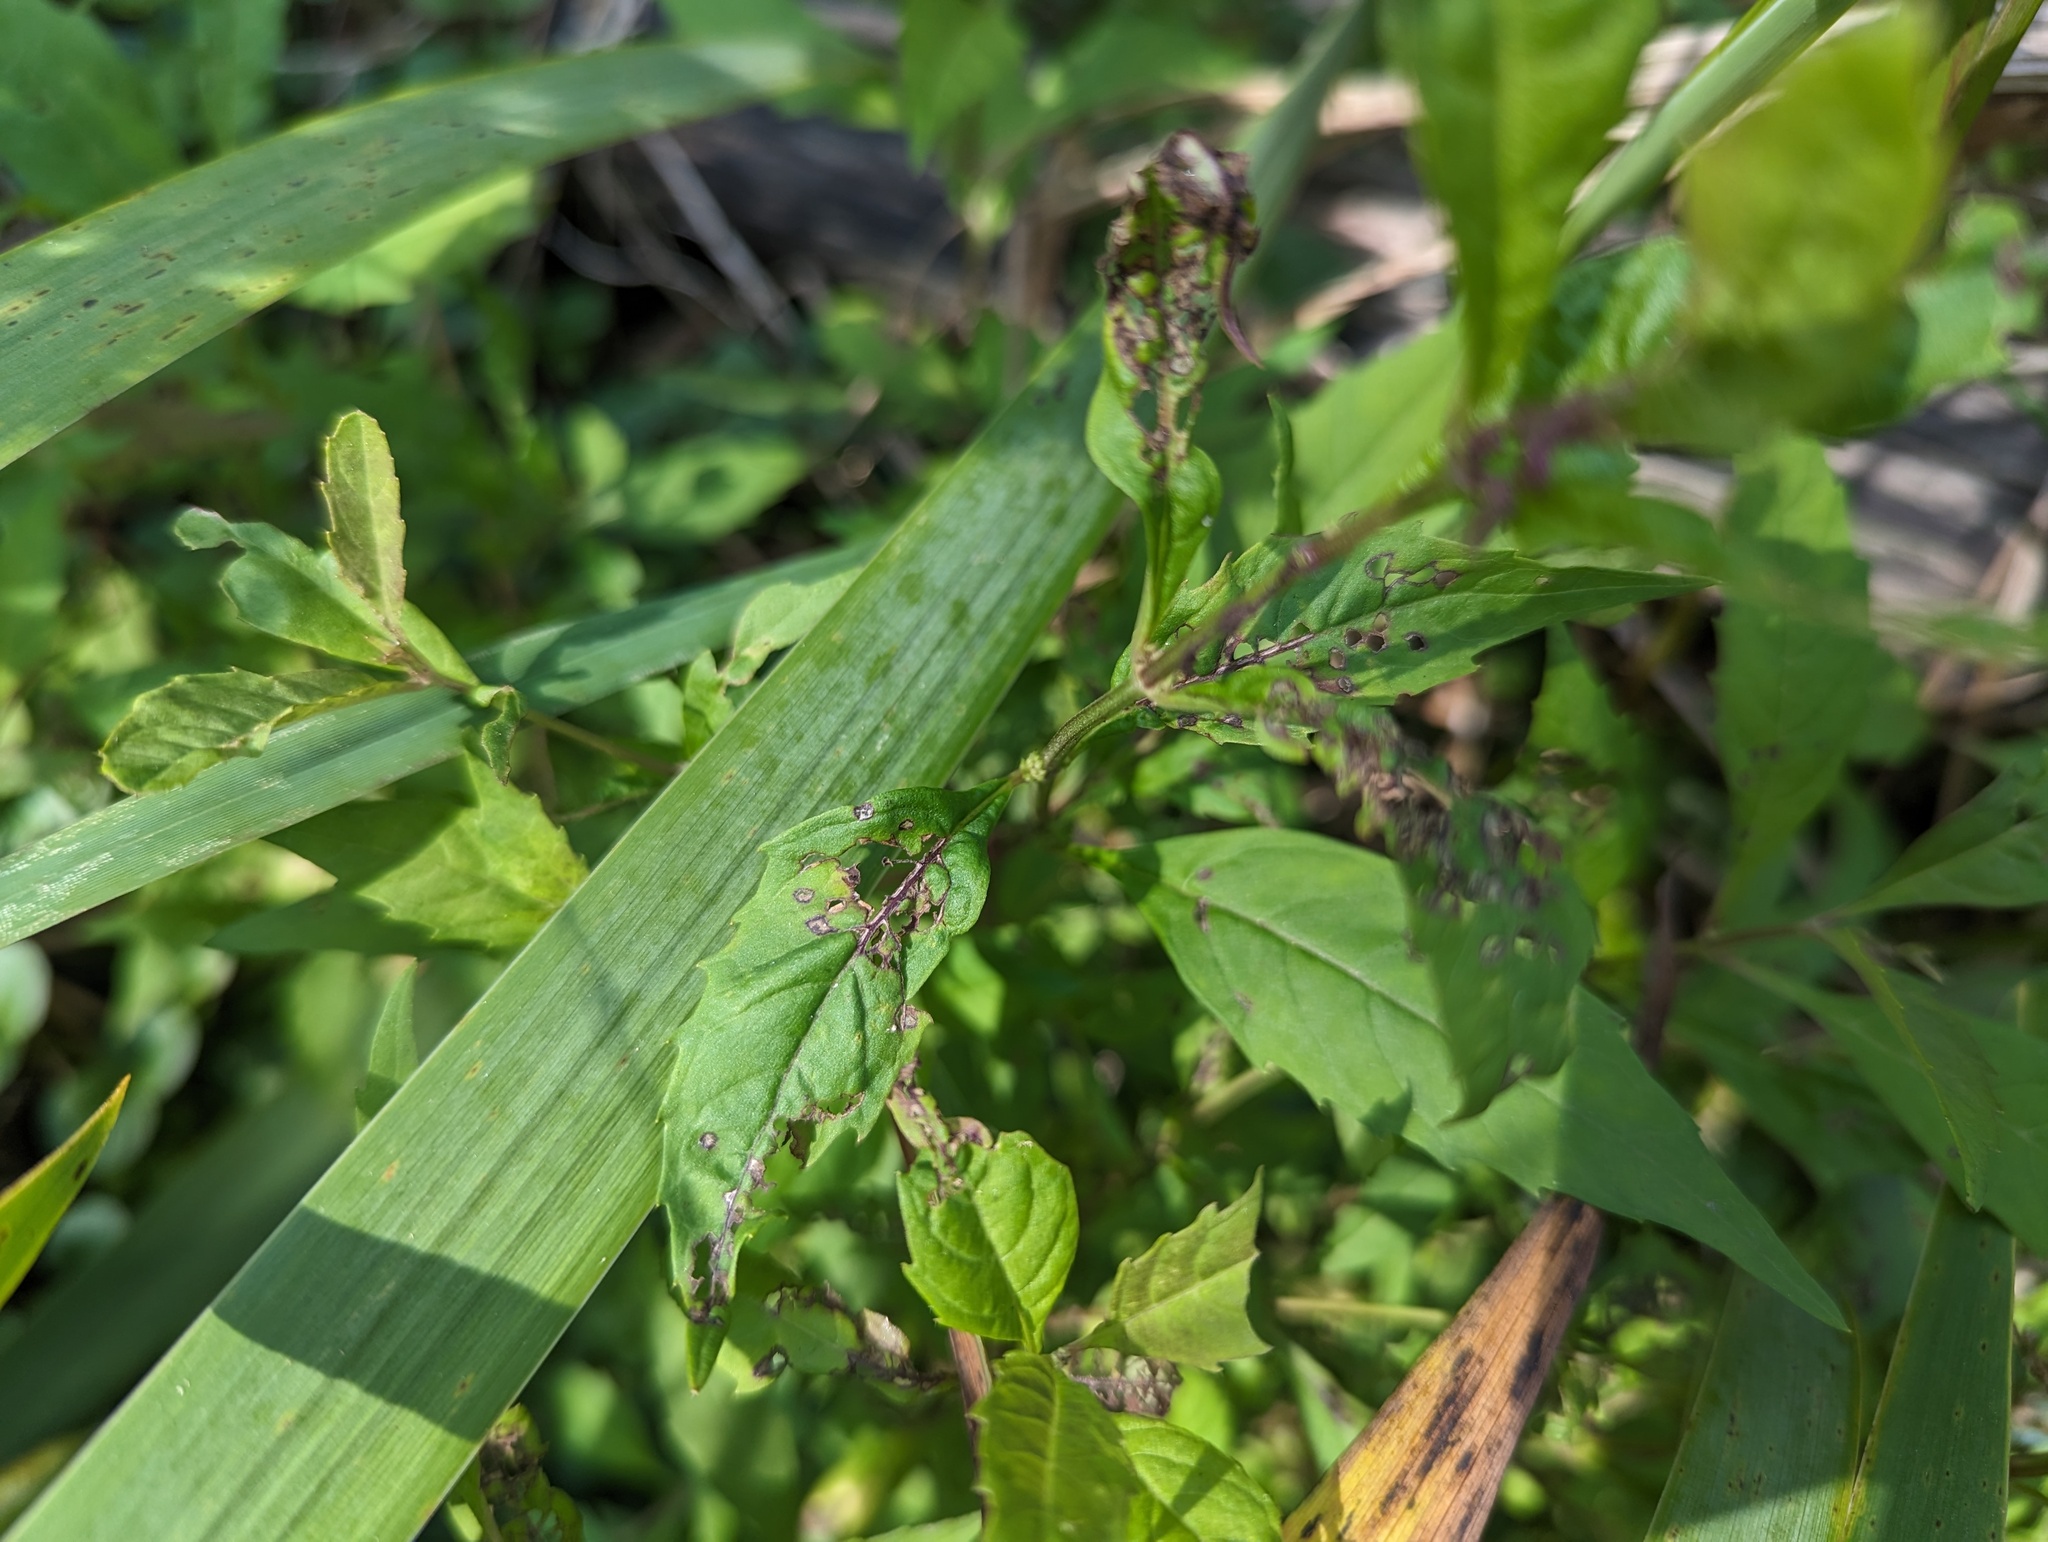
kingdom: Plantae
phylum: Tracheophyta
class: Magnoliopsida
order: Lamiales
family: Lamiaceae
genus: Lycopus
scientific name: Lycopus rubellus
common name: Stalked bugleweed
